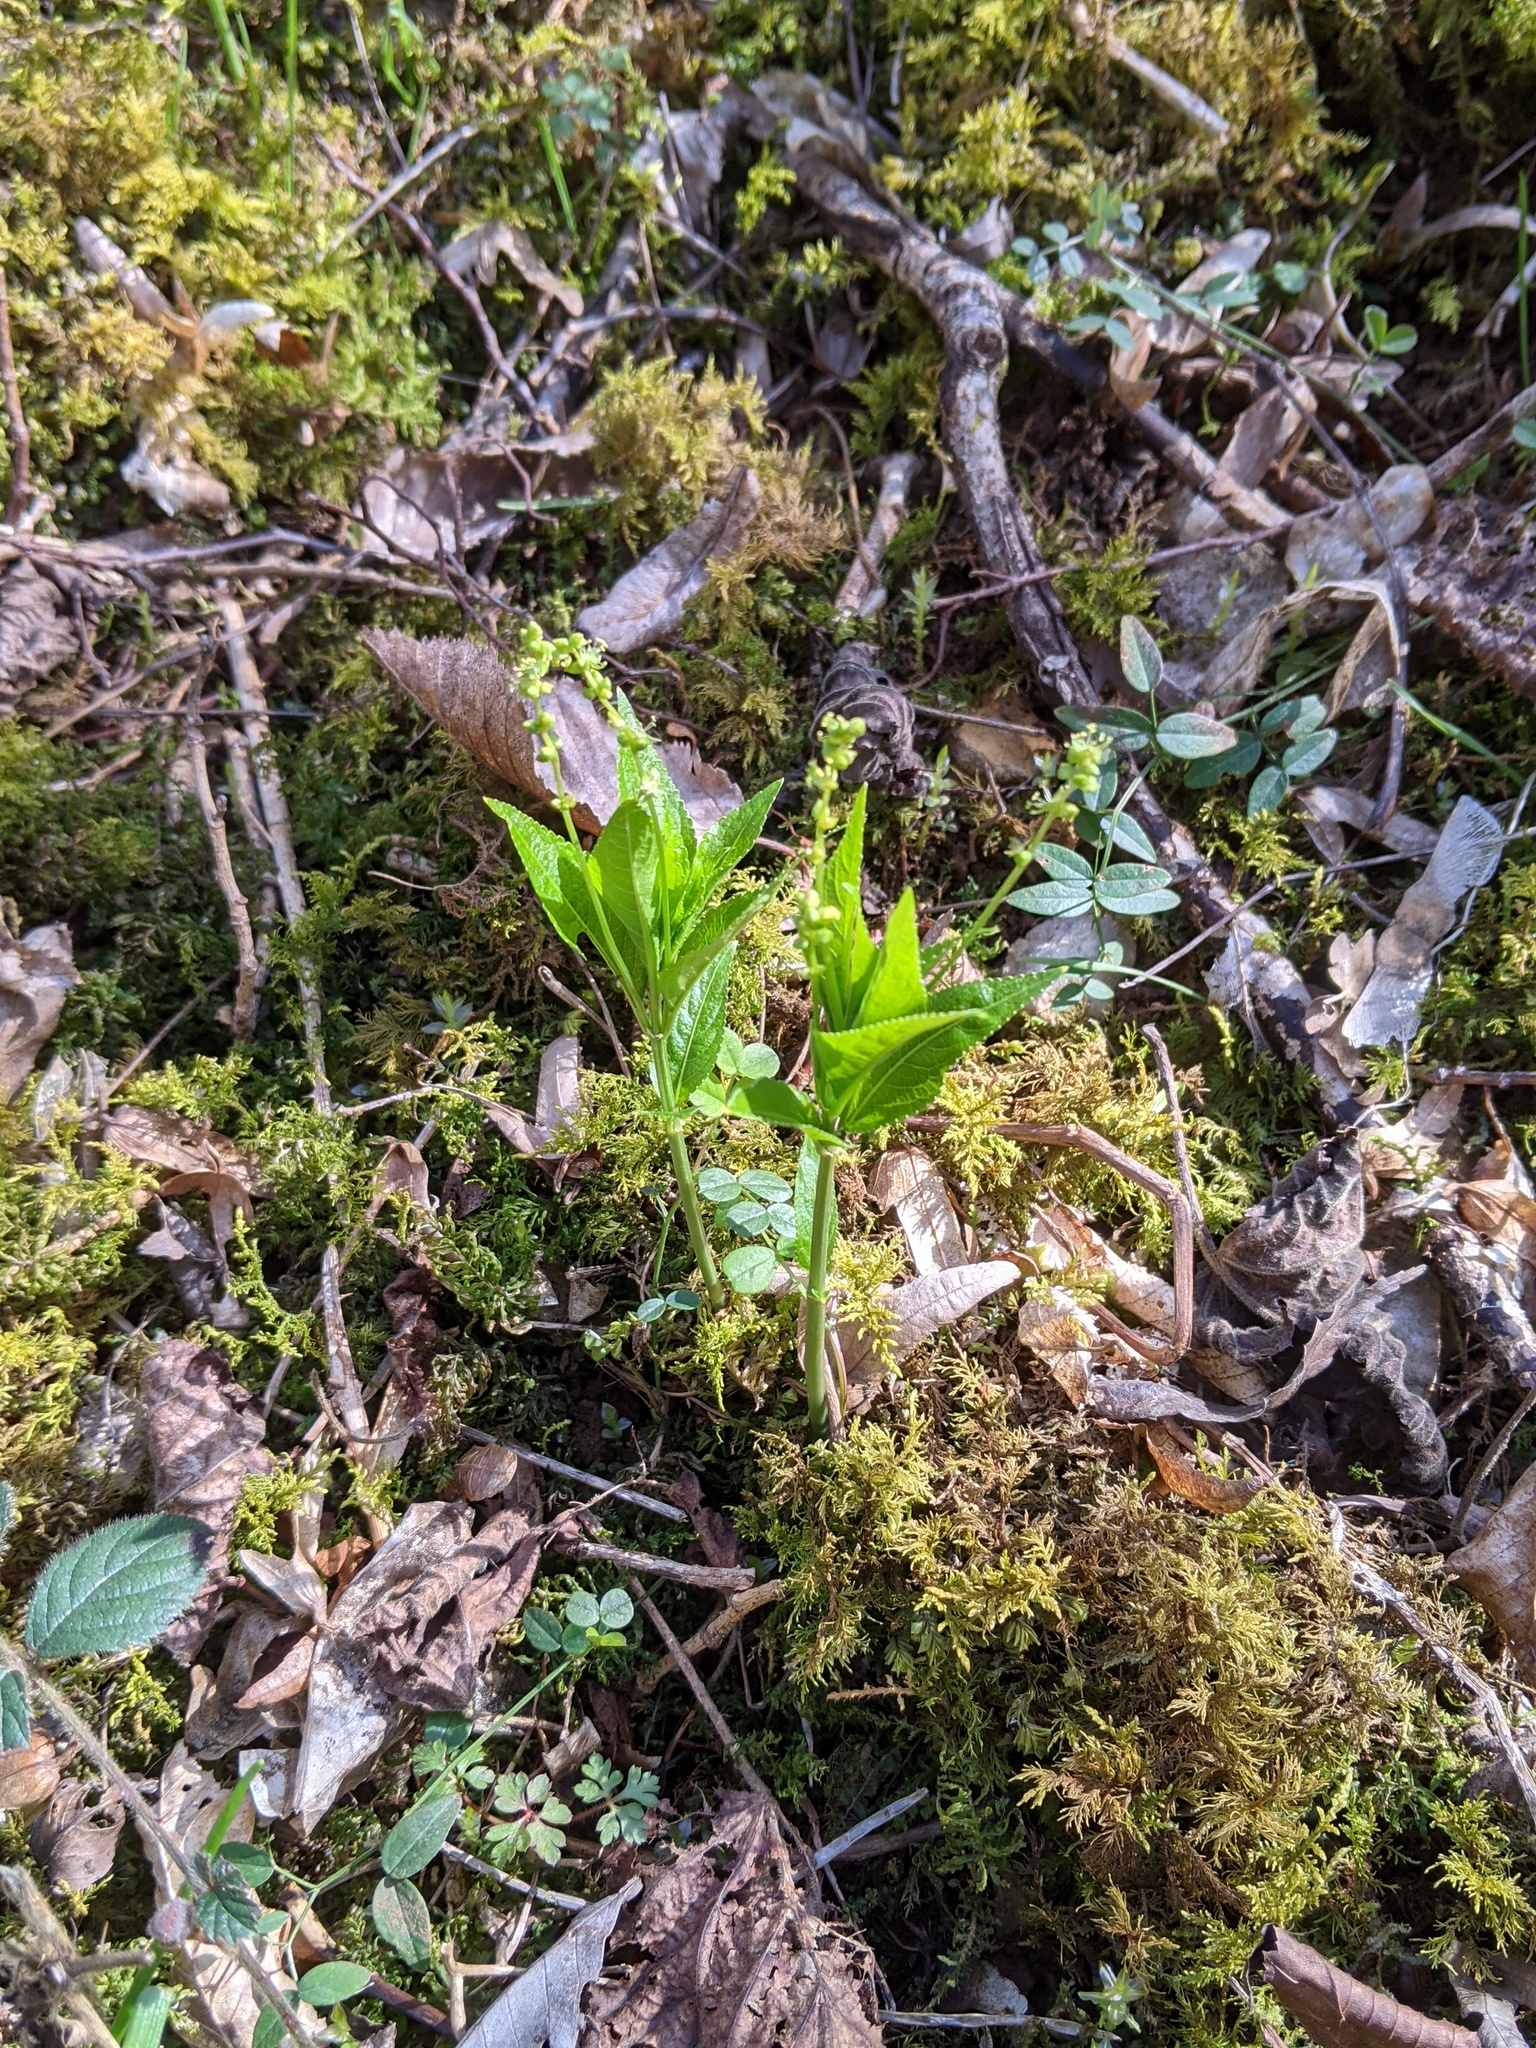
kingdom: Plantae
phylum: Tracheophyta
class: Magnoliopsida
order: Malpighiales
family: Euphorbiaceae
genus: Mercurialis
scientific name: Mercurialis perennis
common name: Dog mercury
